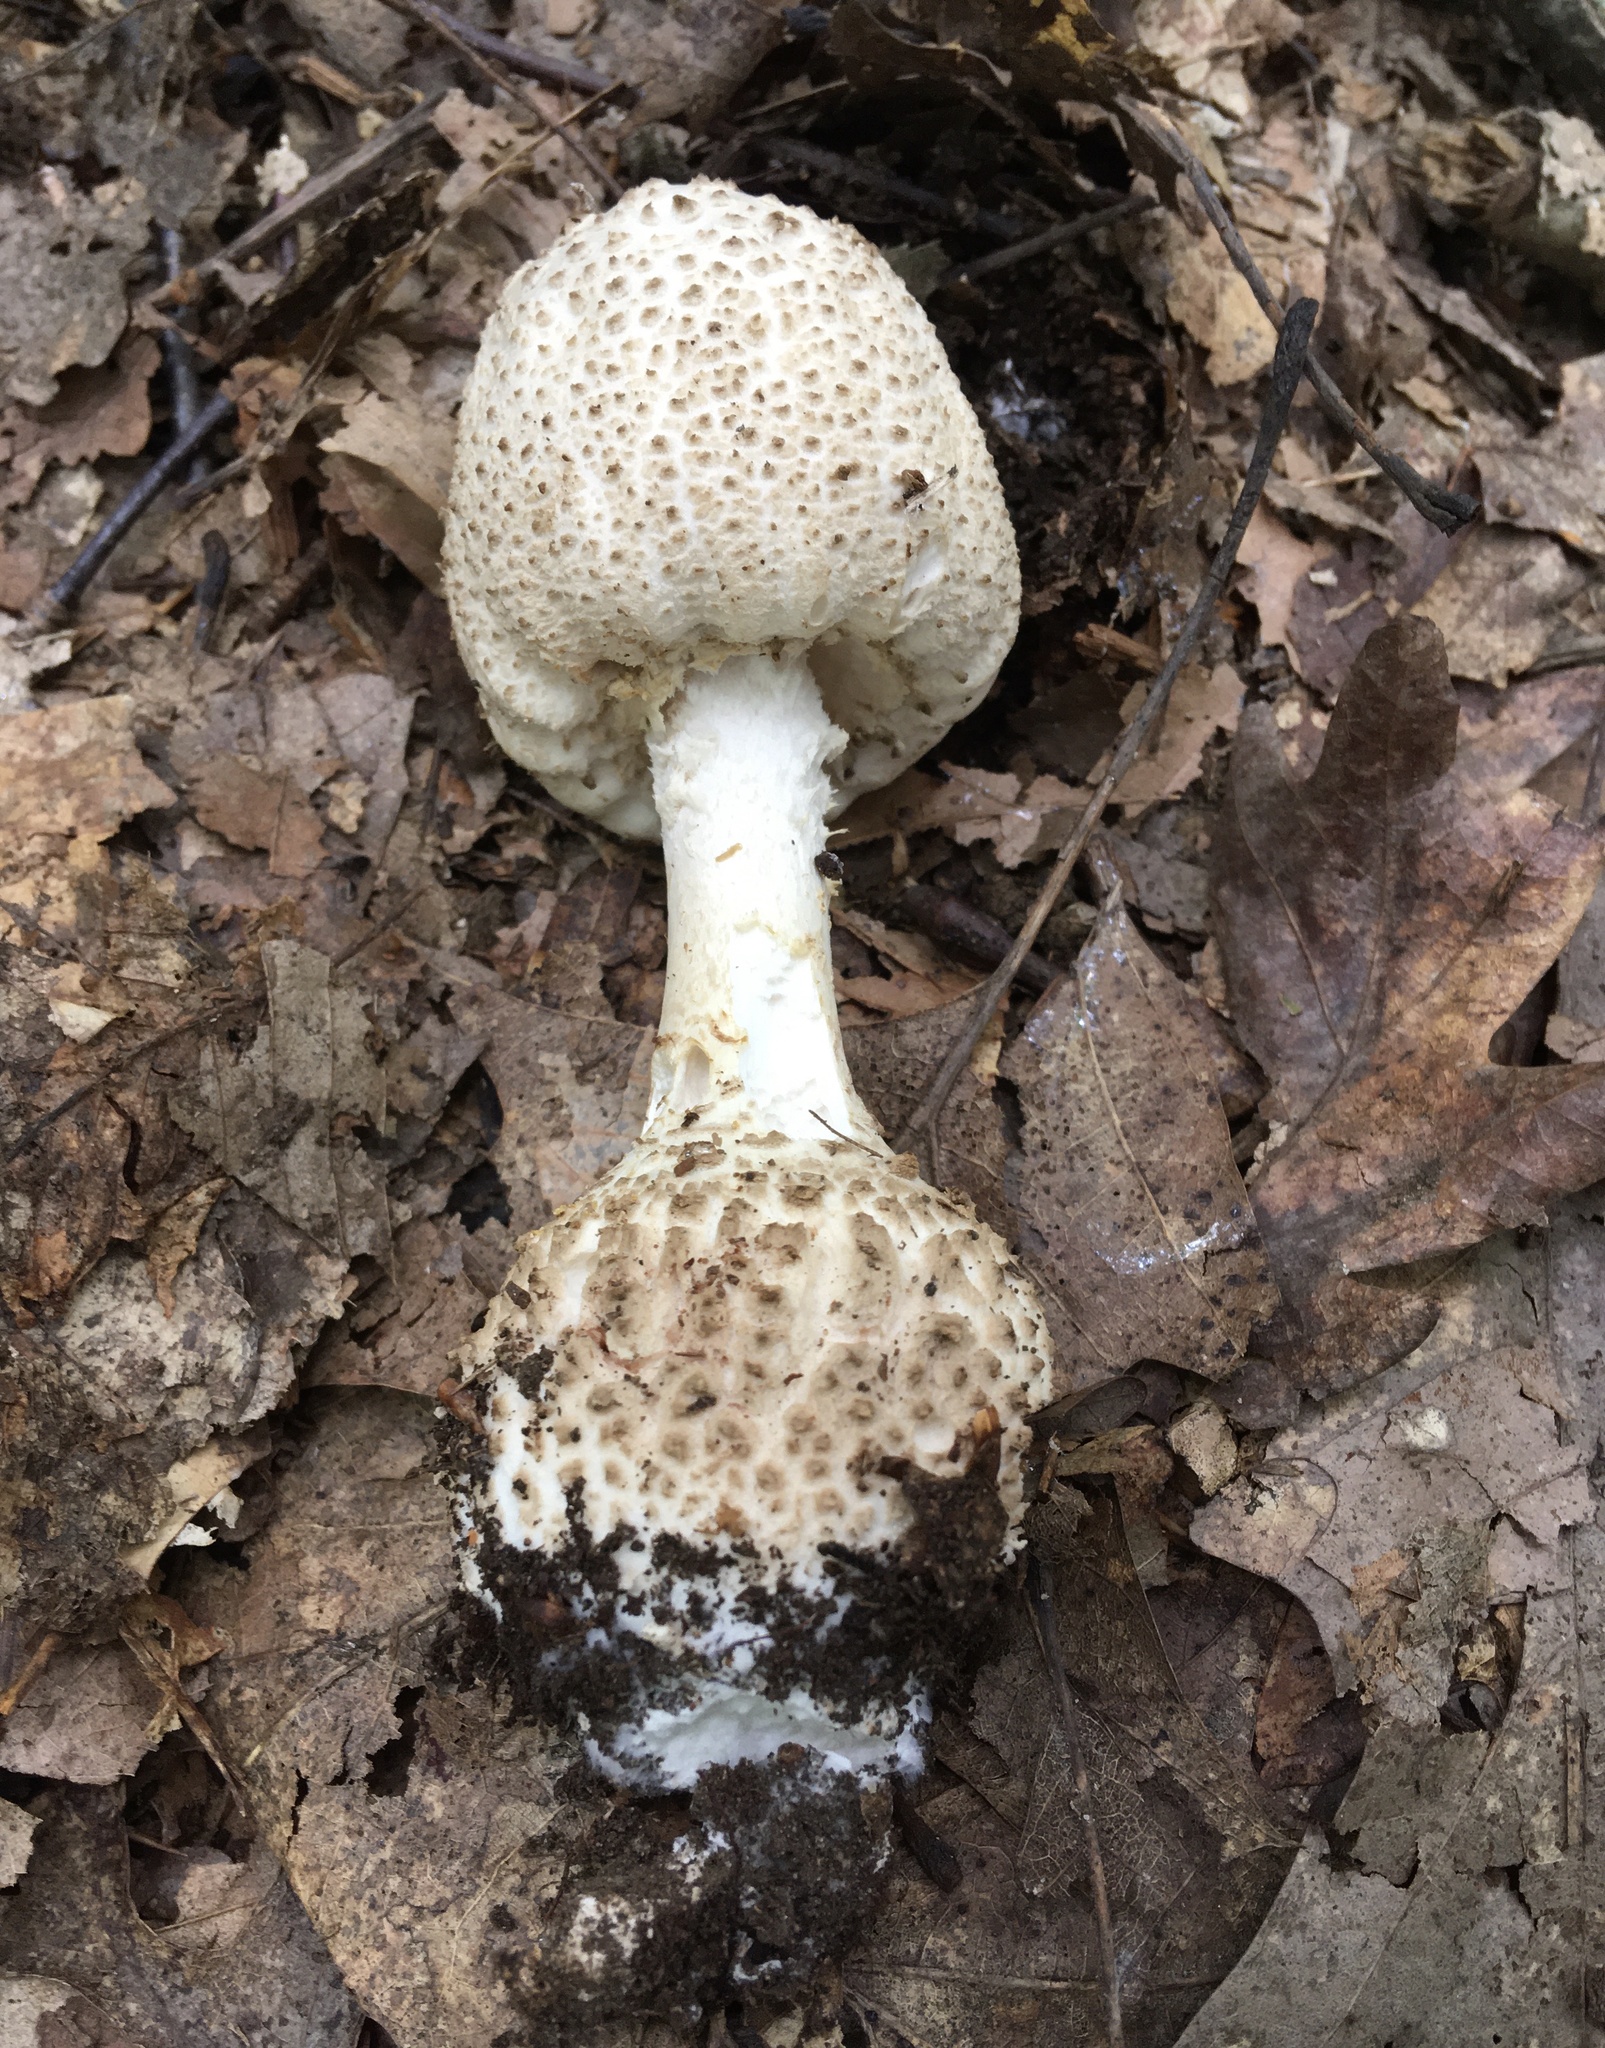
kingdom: Fungi
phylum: Basidiomycota
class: Agaricomycetes
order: Agaricales
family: Amanitaceae
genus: Amanita
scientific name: Amanita atkinsoniana
